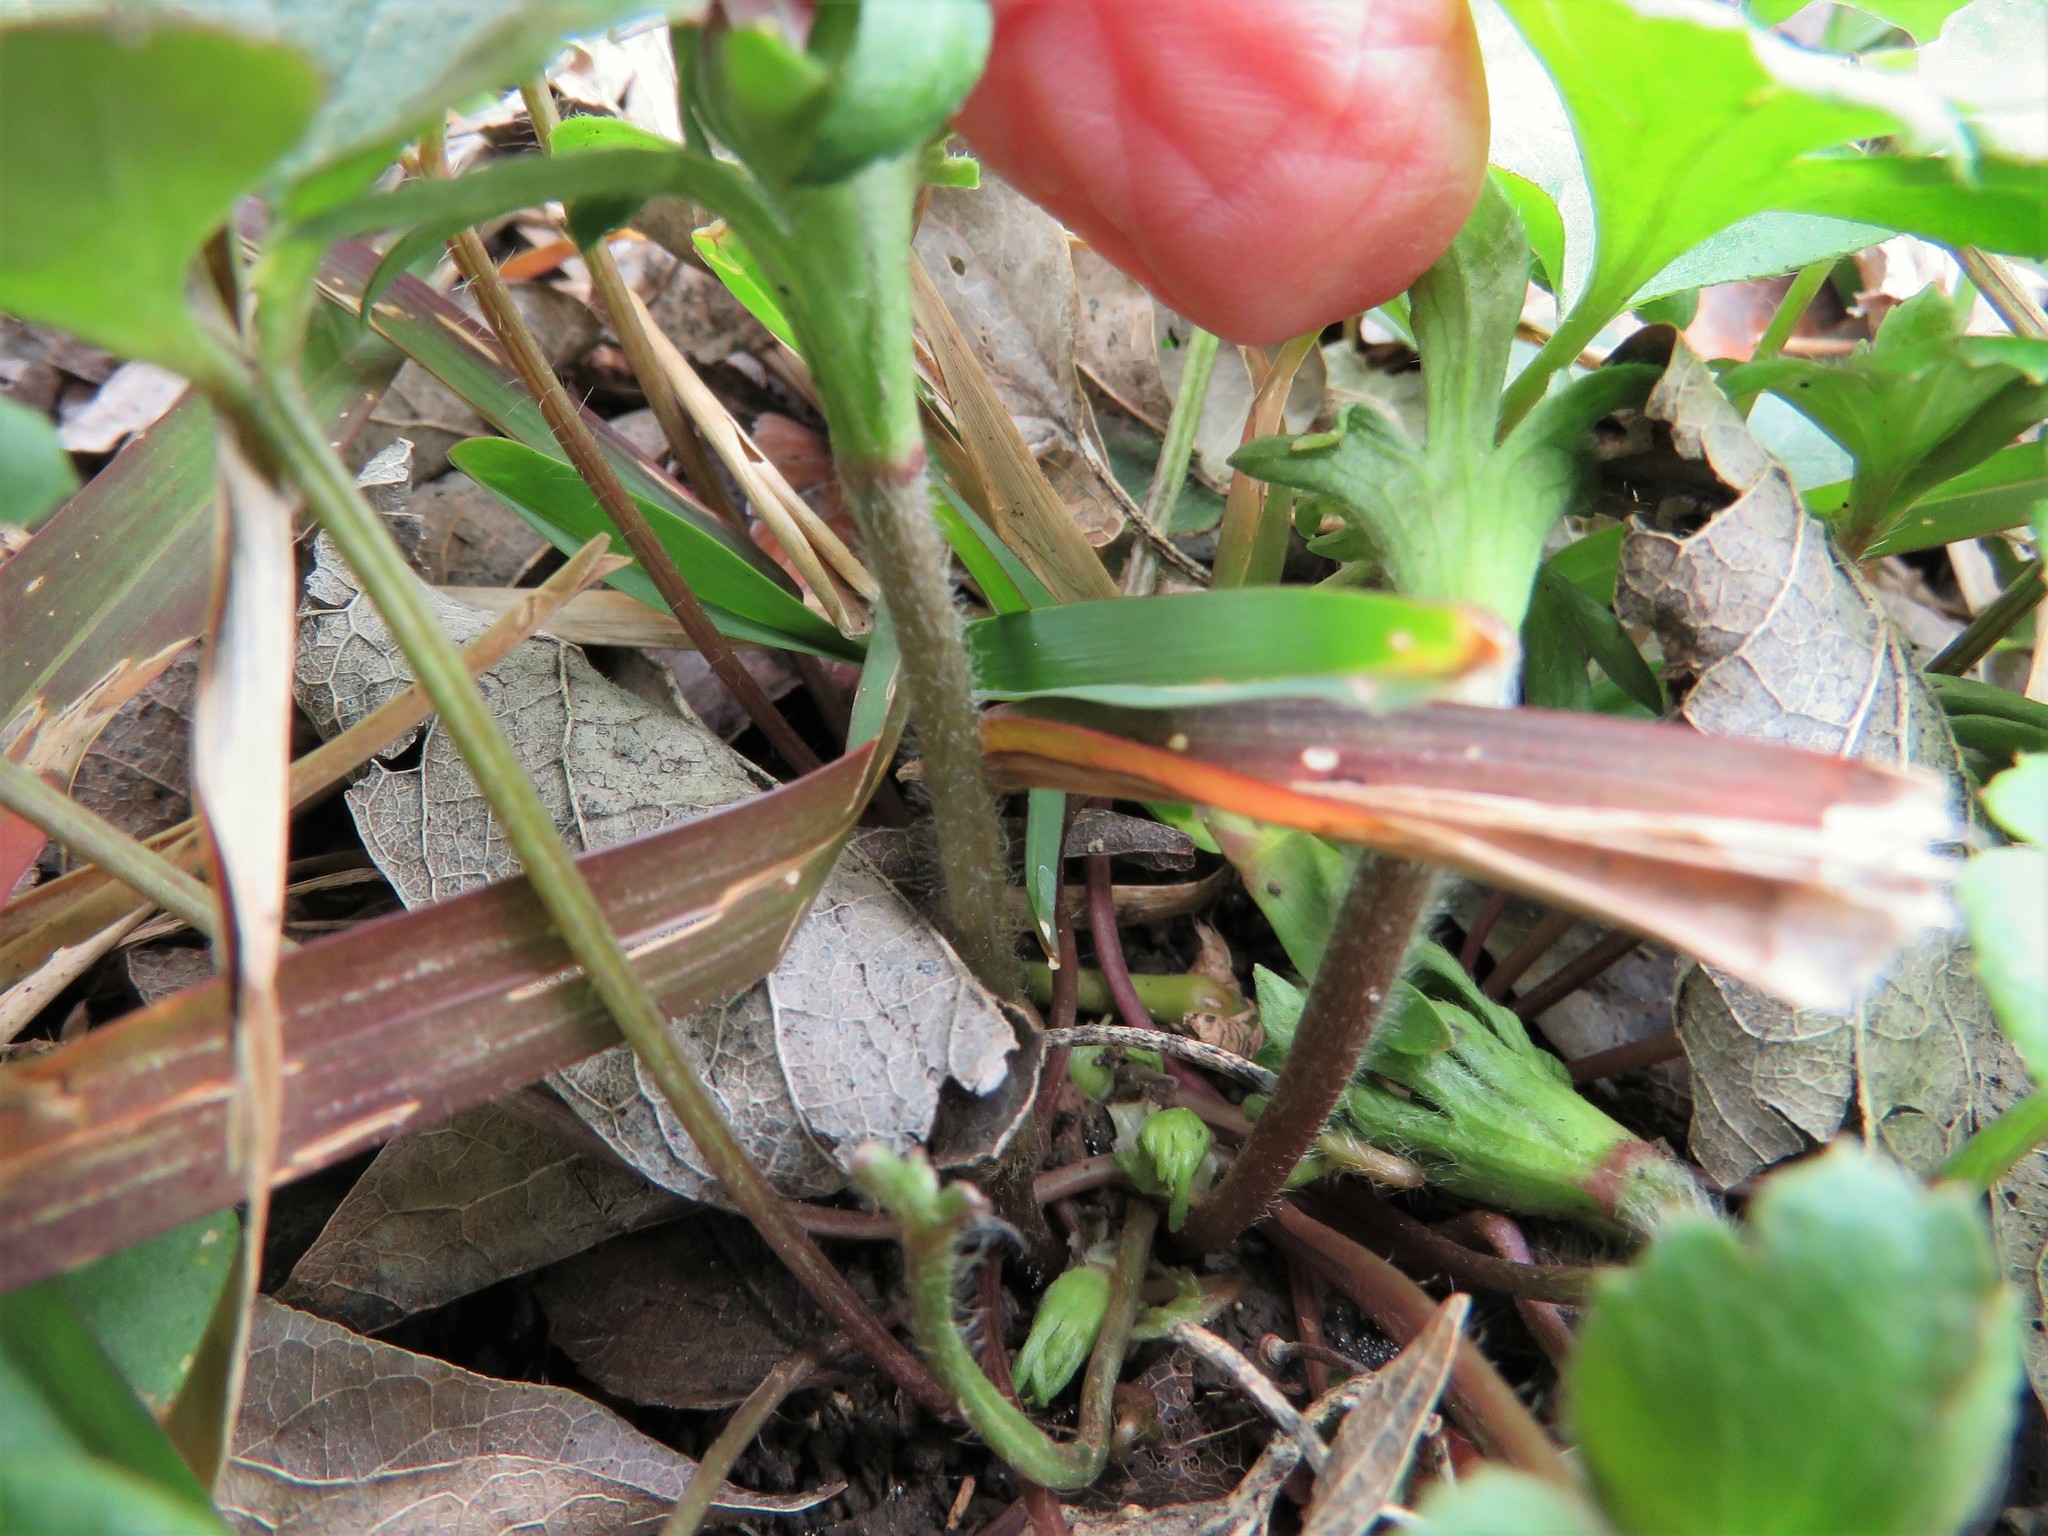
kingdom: Plantae
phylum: Tracheophyta
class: Magnoliopsida
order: Ranunculales
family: Ranunculaceae
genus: Anemone
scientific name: Anemone berlandieri
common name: Ten-petal anemone
